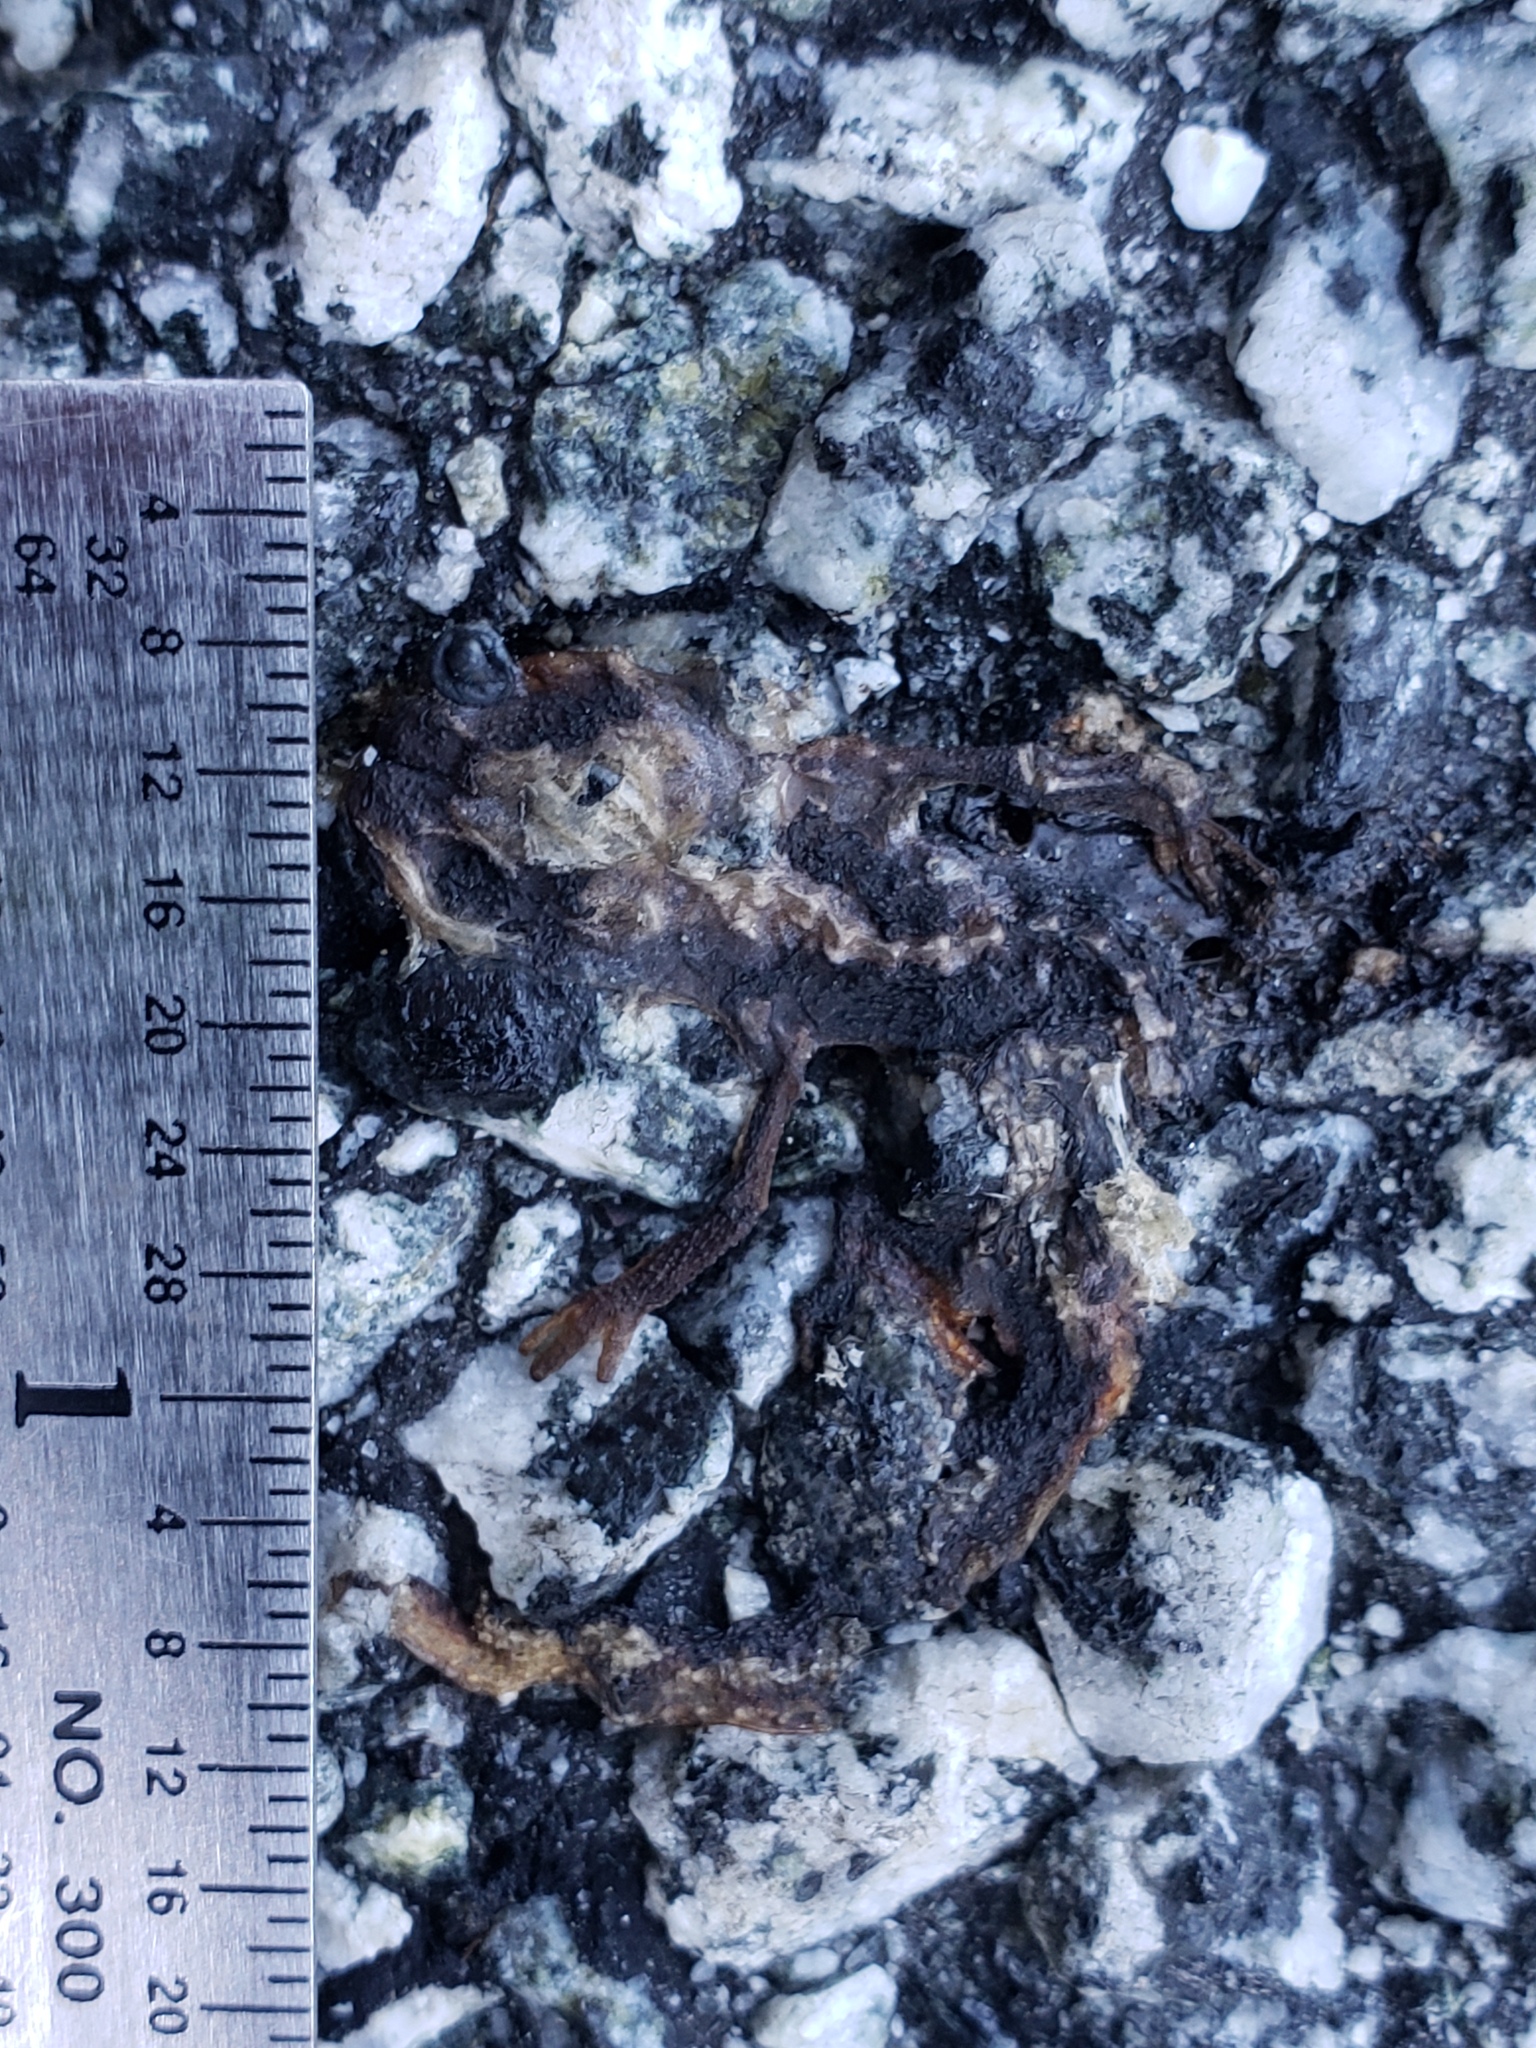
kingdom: Animalia
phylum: Chordata
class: Amphibia
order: Caudata
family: Salamandridae
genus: Taricha
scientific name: Taricha
